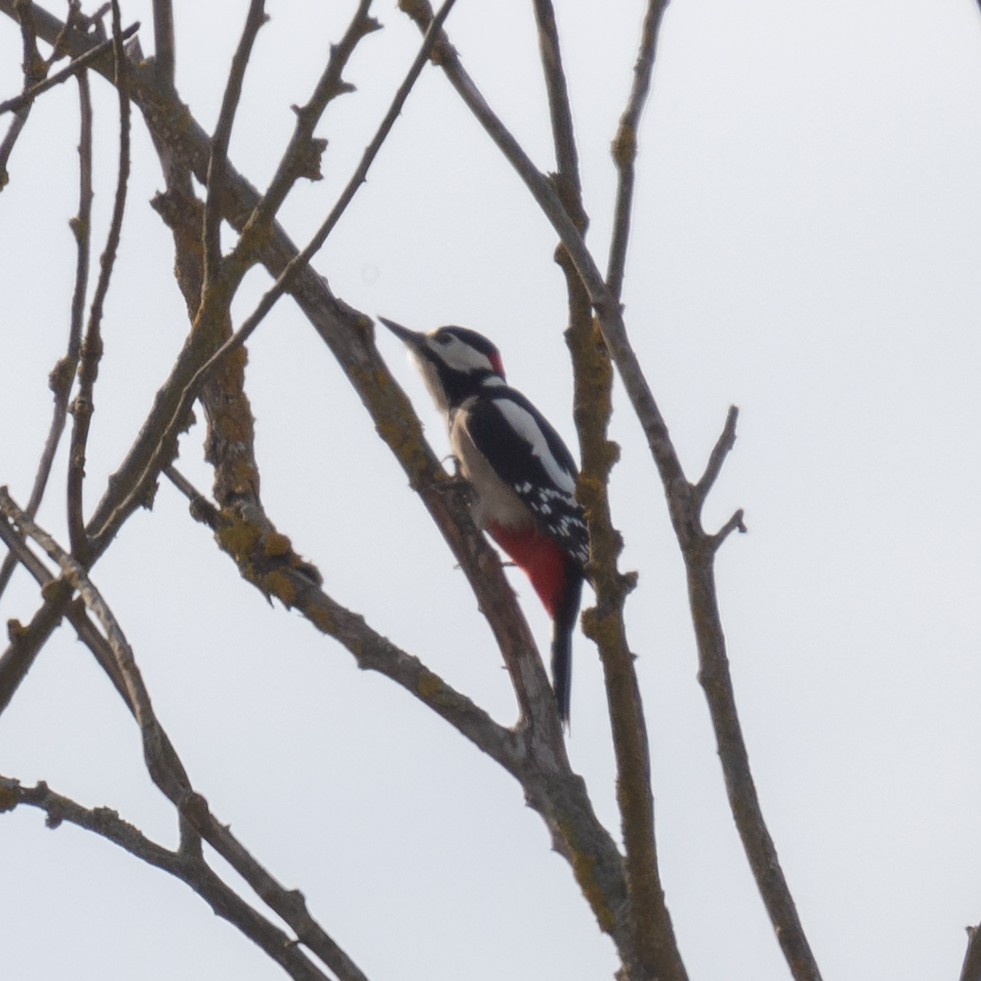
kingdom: Animalia
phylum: Chordata
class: Aves
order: Piciformes
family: Picidae
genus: Dendrocopos
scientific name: Dendrocopos major
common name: Great spotted woodpecker
